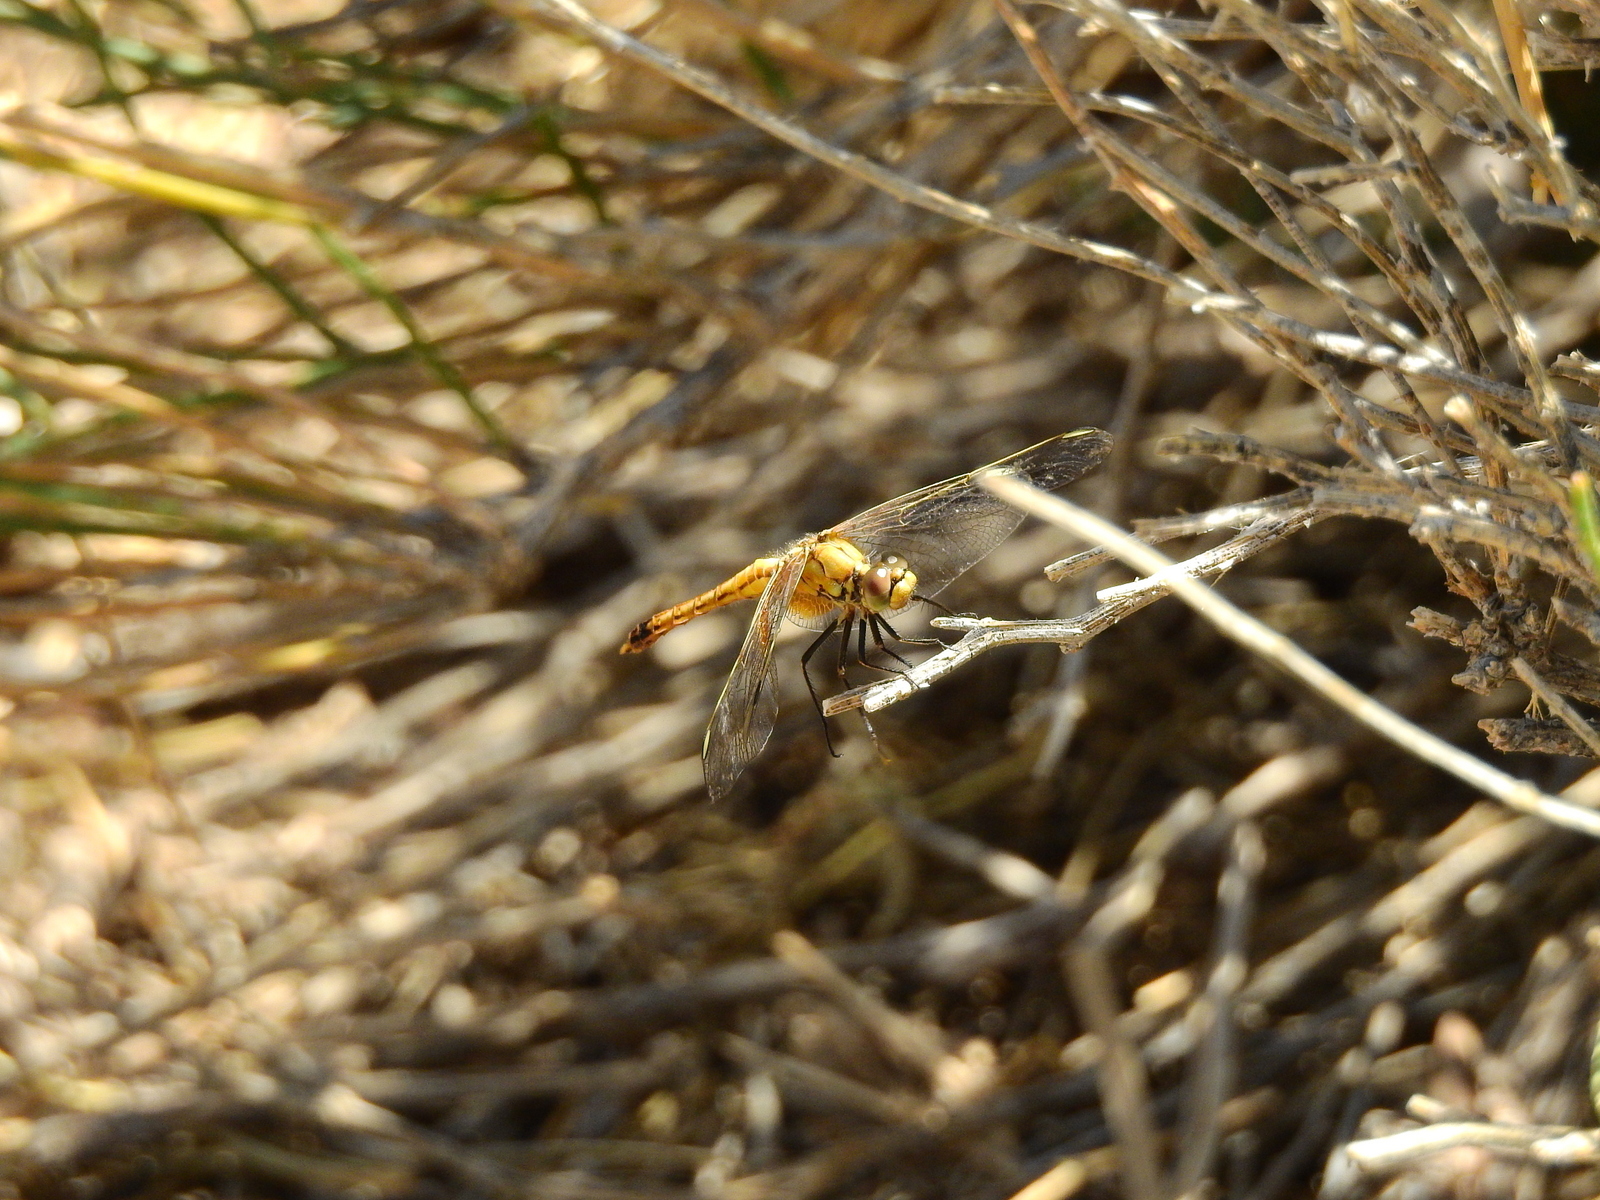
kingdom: Animalia
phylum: Arthropoda
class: Insecta
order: Odonata
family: Libellulidae
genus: Erythrodiplax
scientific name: Erythrodiplax corallina
